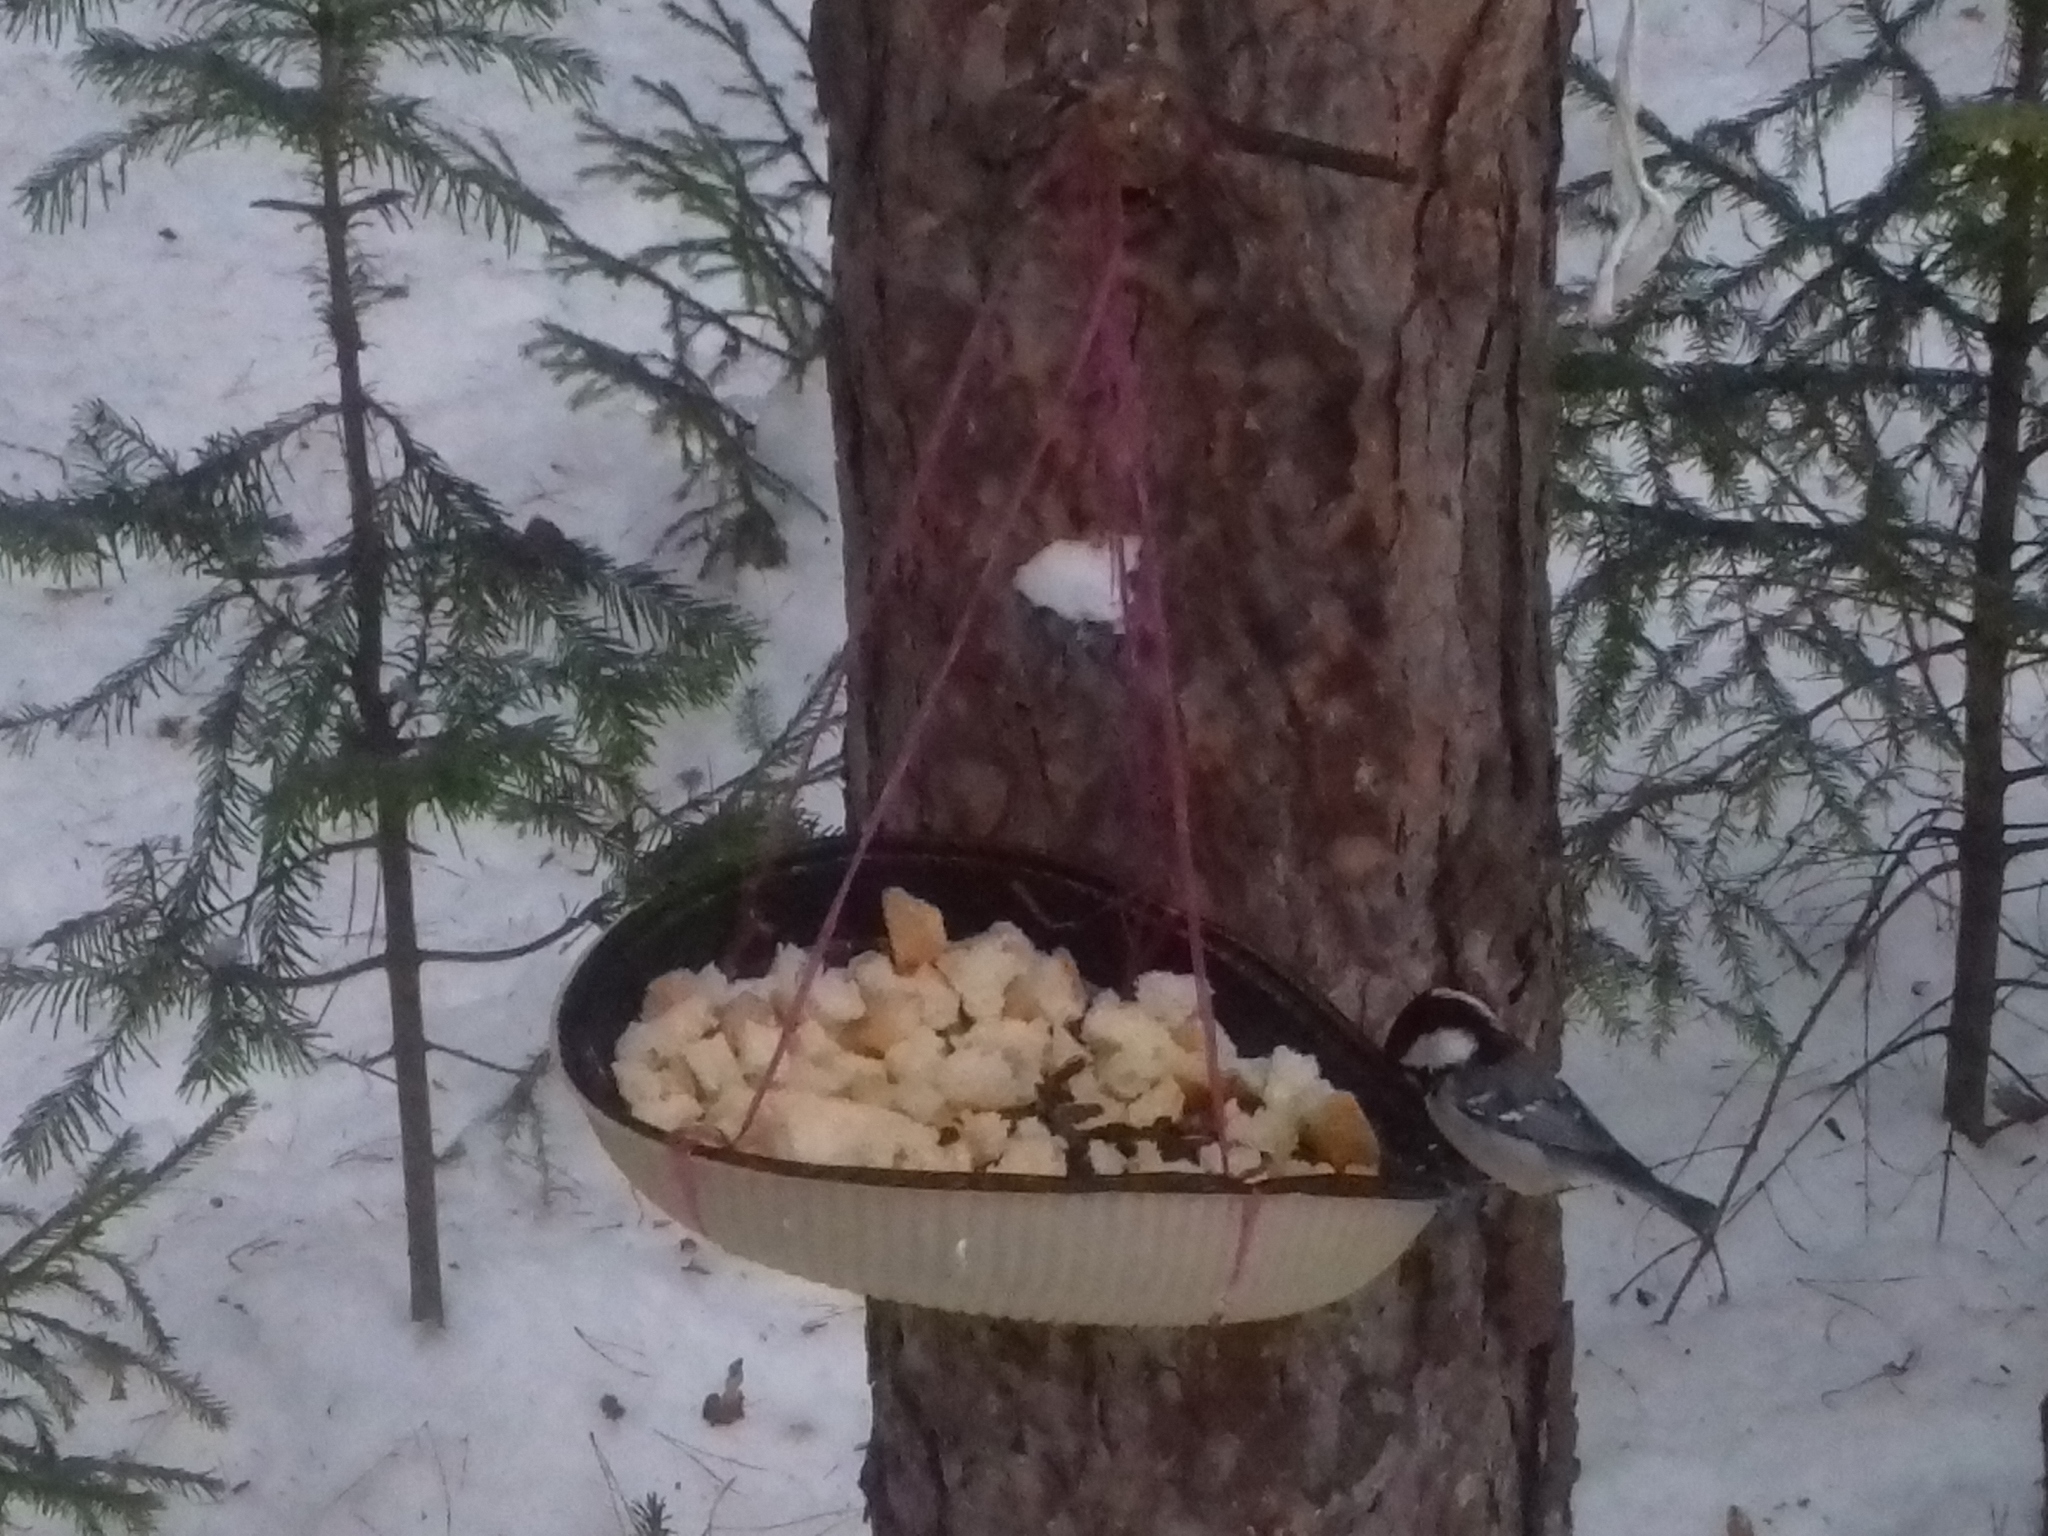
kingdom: Animalia
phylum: Chordata
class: Aves
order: Passeriformes
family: Paridae
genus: Periparus
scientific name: Periparus ater
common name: Coal tit
